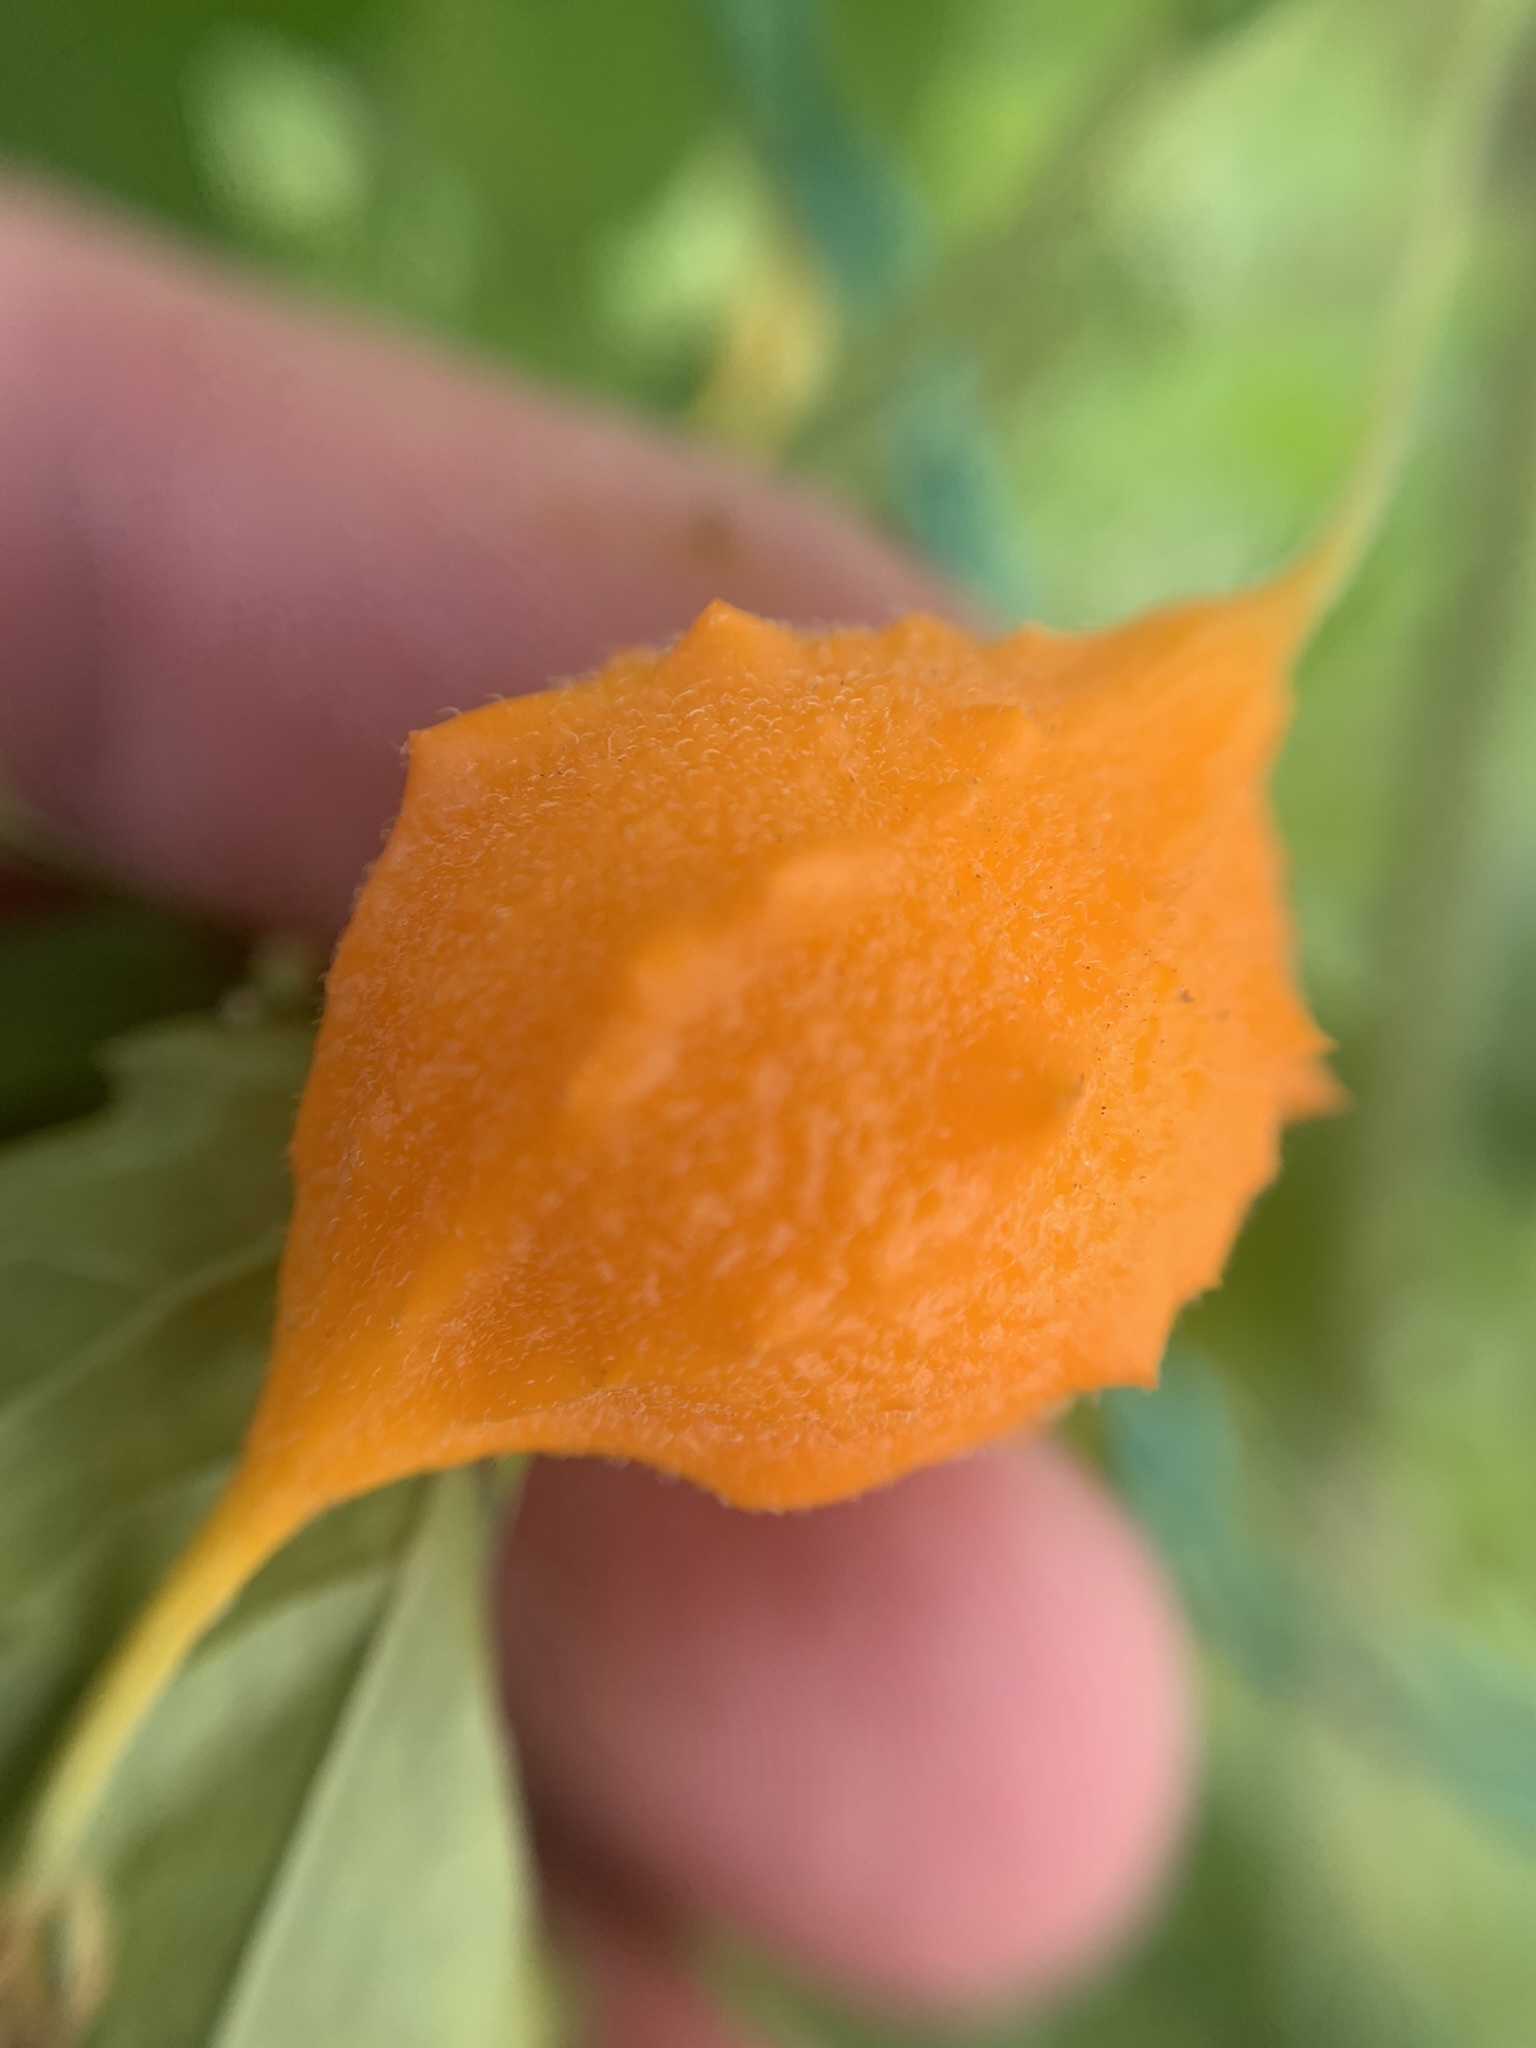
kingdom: Plantae
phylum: Tracheophyta
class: Magnoliopsida
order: Cucurbitales
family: Cucurbitaceae
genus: Momordica
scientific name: Momordica charantia
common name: Balsampear
